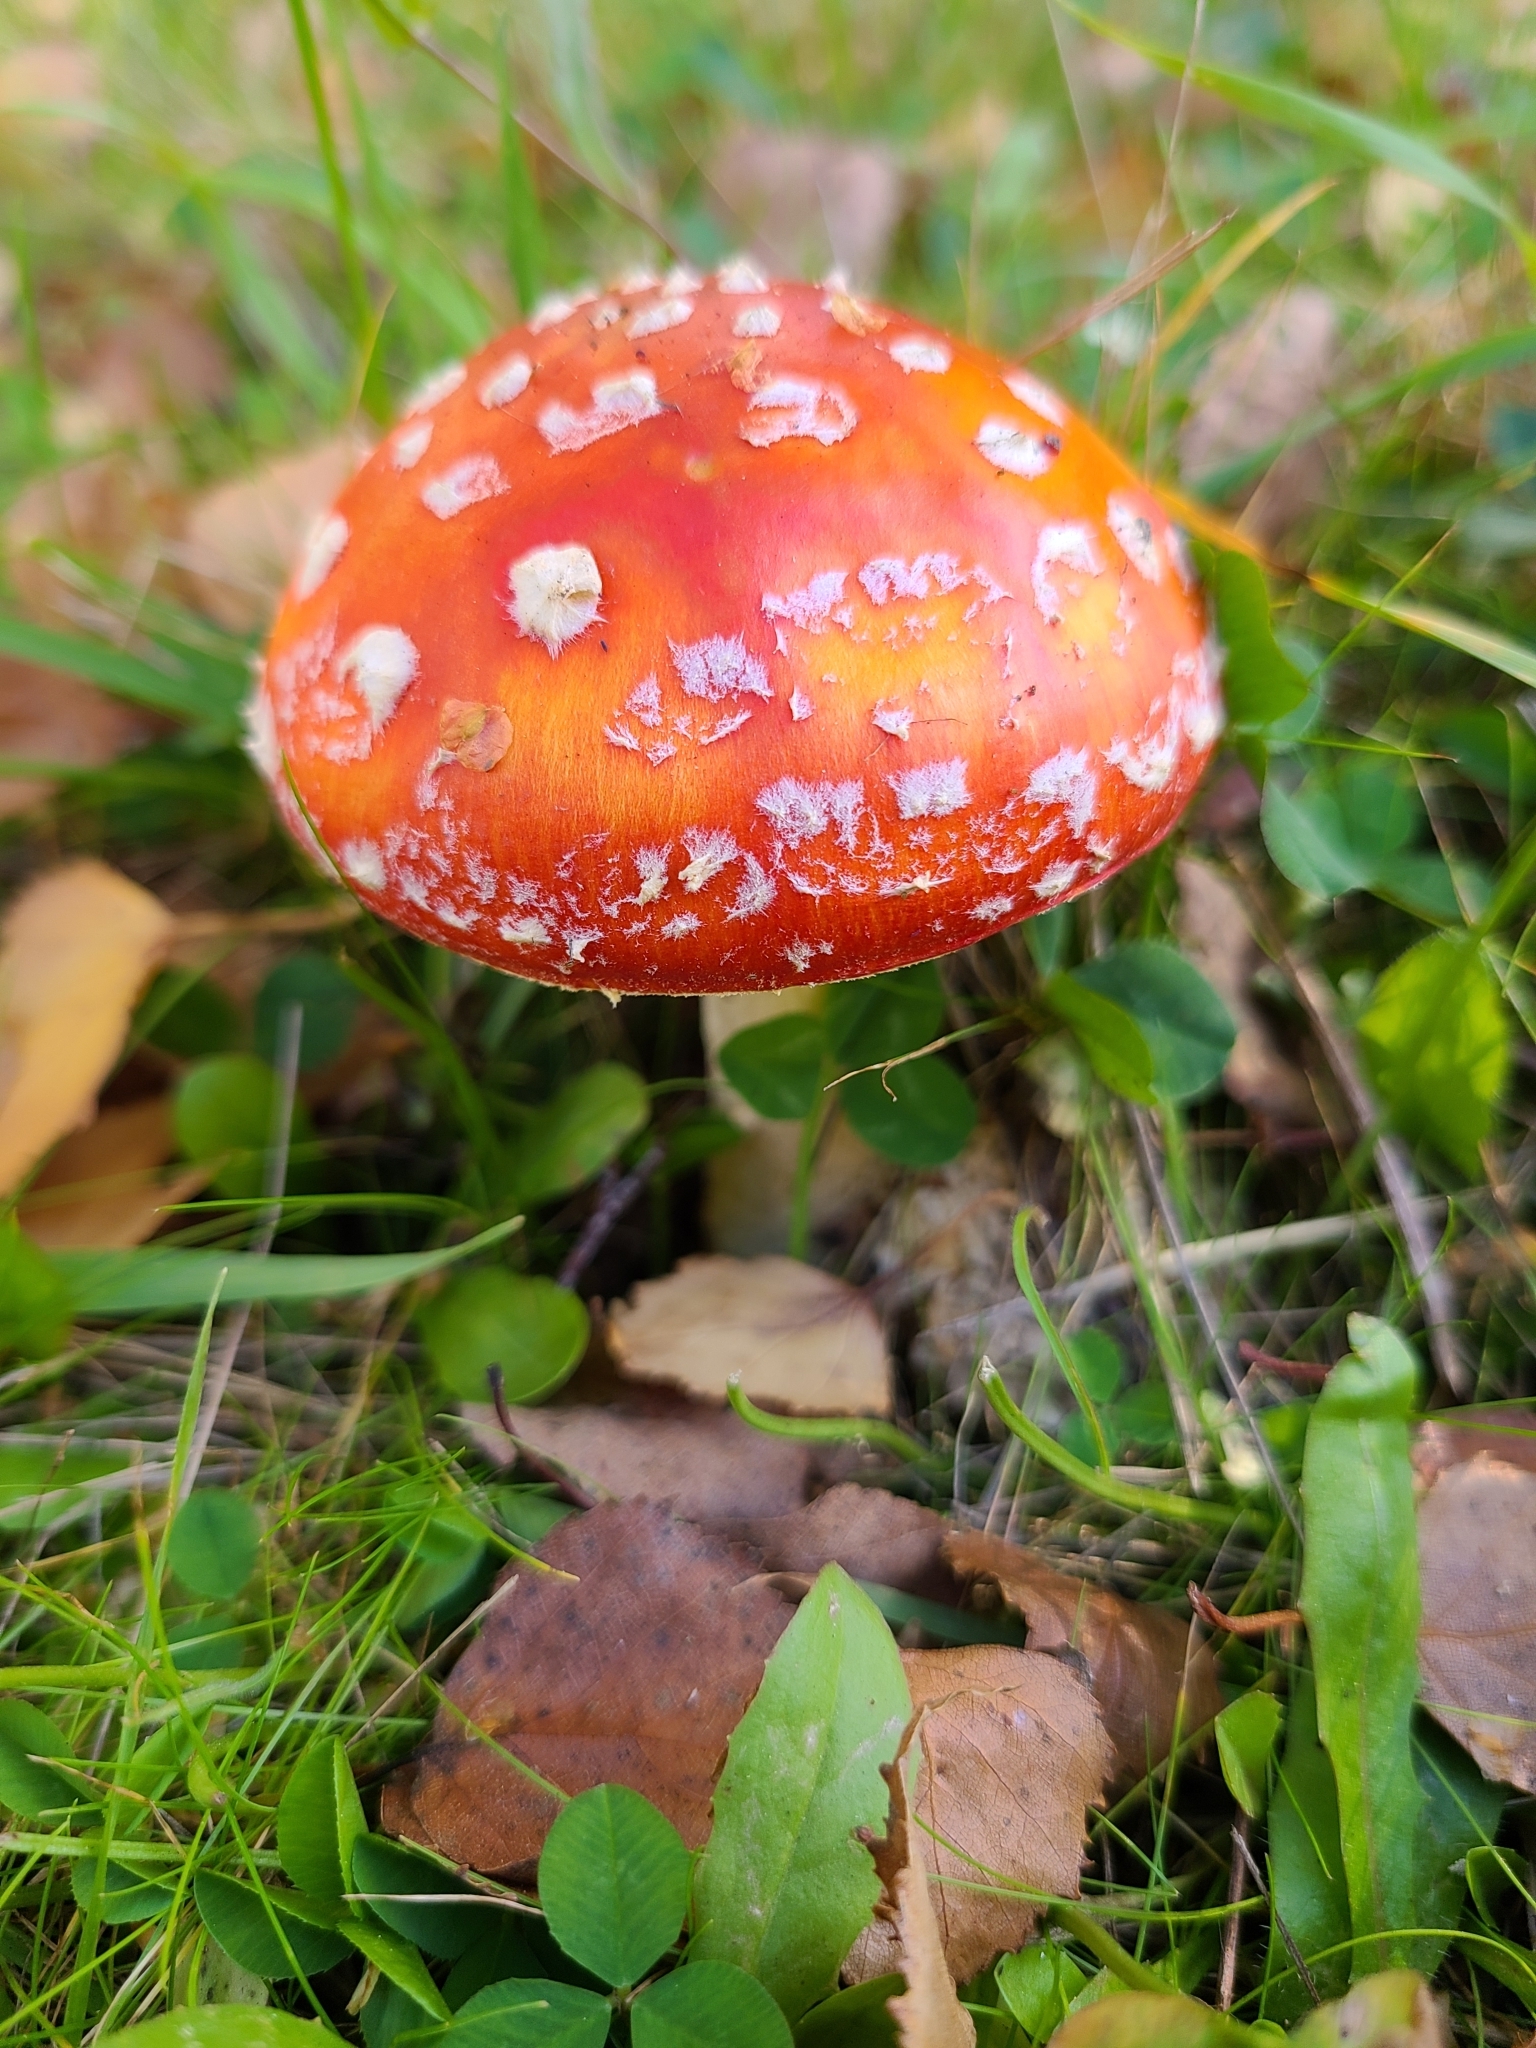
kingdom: Fungi
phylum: Basidiomycota
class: Agaricomycetes
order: Agaricales
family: Amanitaceae
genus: Amanita
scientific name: Amanita muscaria
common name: Fly agaric
